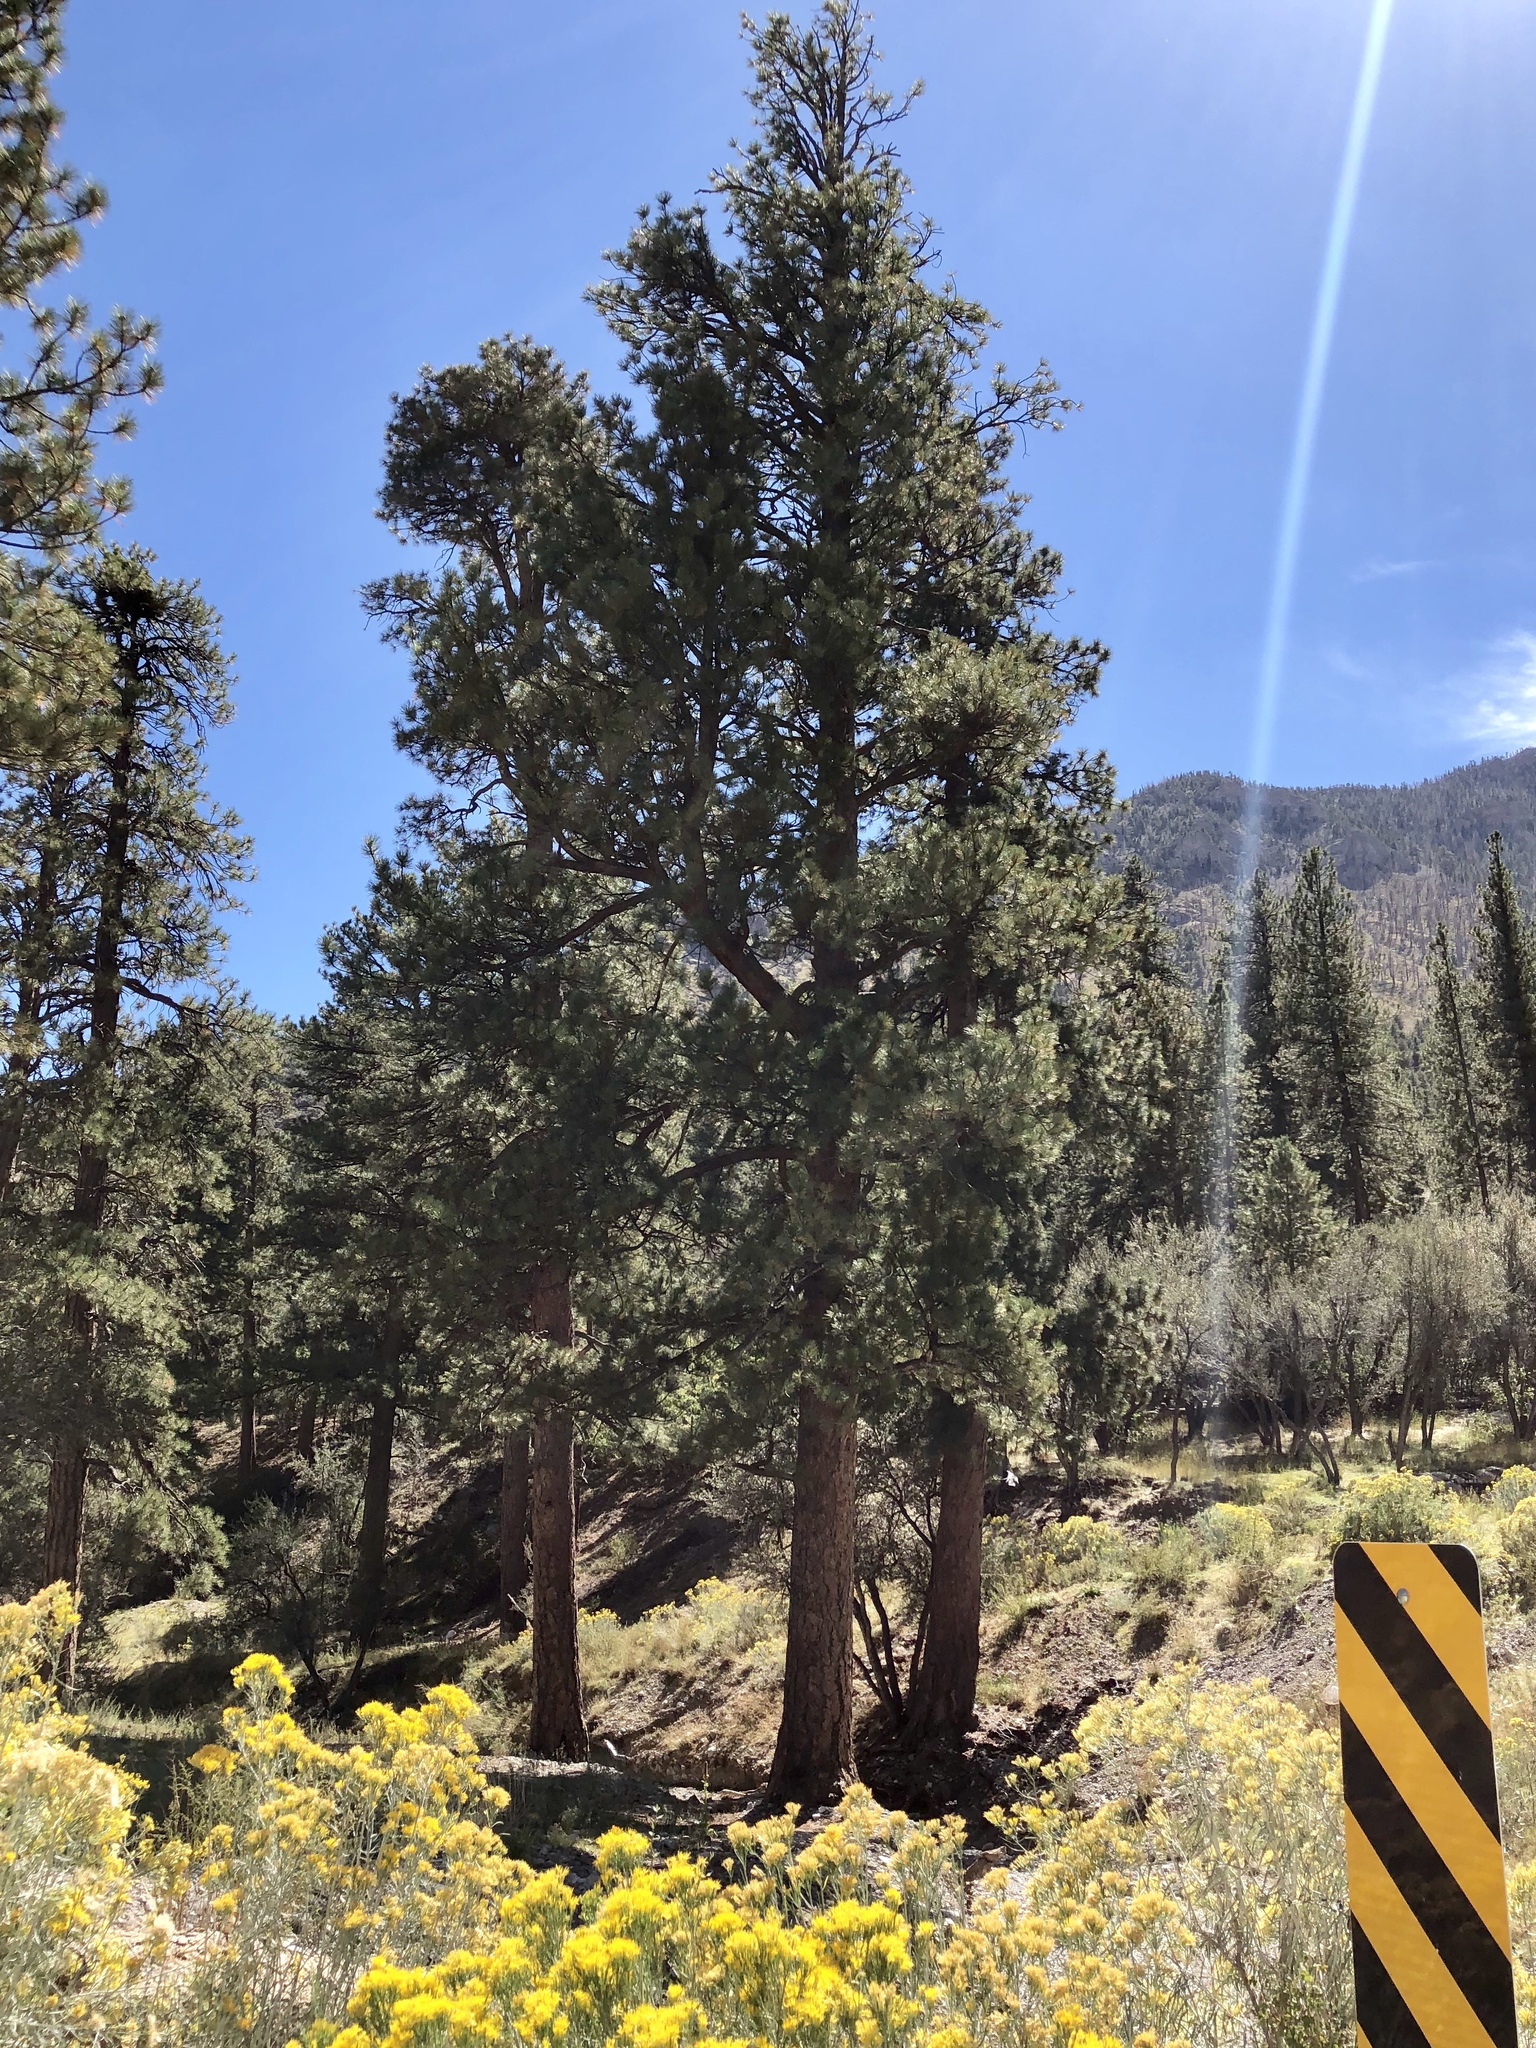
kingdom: Plantae
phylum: Tracheophyta
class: Pinopsida
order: Pinales
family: Pinaceae
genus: Pinus
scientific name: Pinus ponderosa
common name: Western yellow-pine
